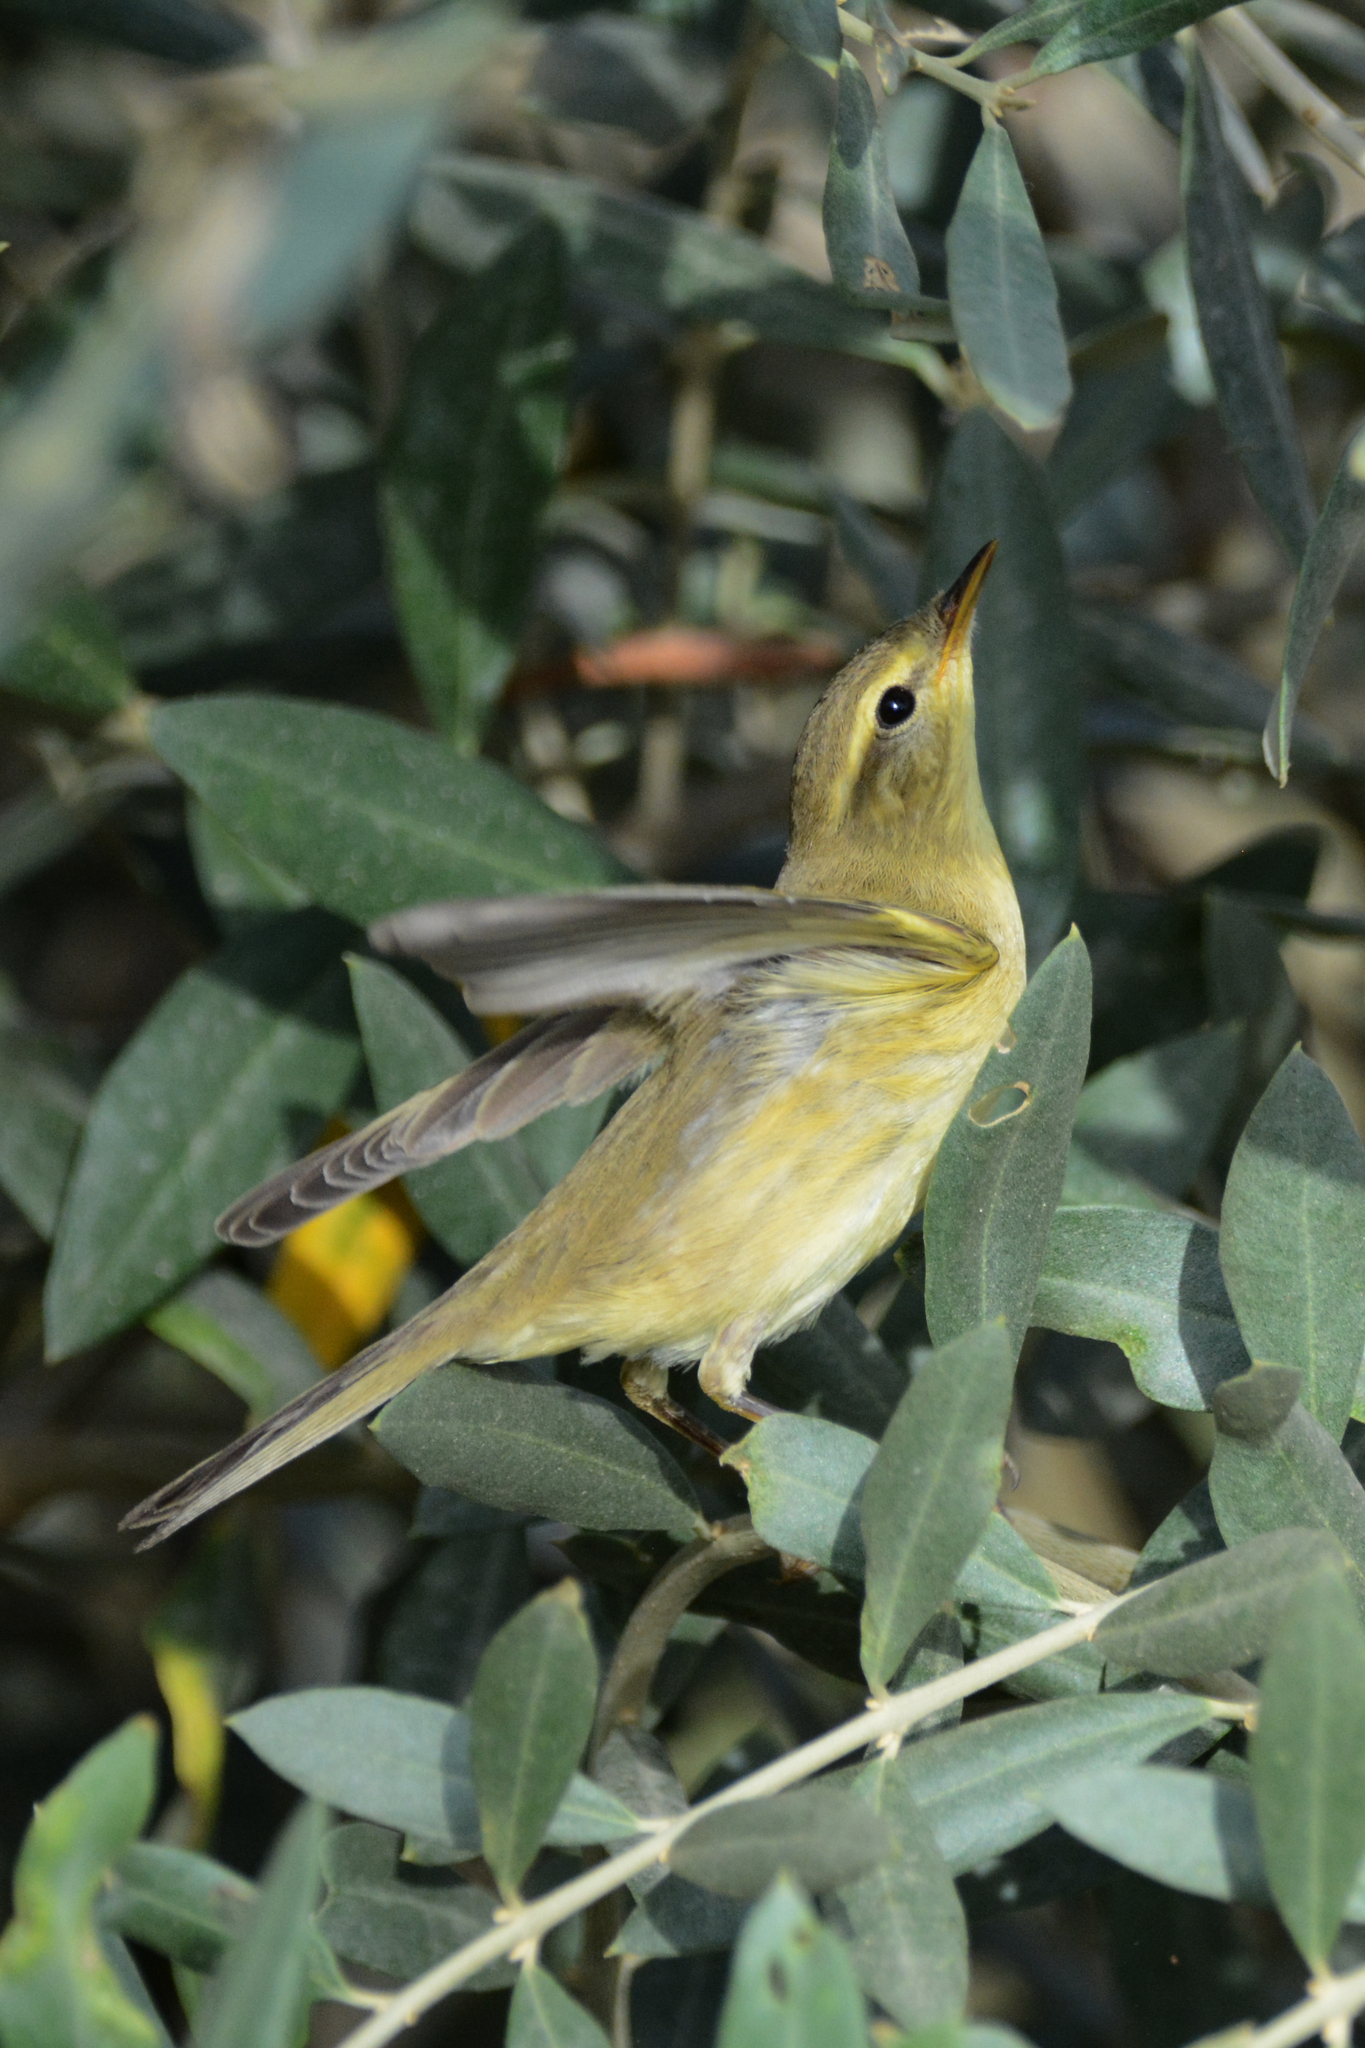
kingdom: Animalia
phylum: Chordata
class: Aves
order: Passeriformes
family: Phylloscopidae
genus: Phylloscopus
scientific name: Phylloscopus trochilus
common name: Willow warbler
